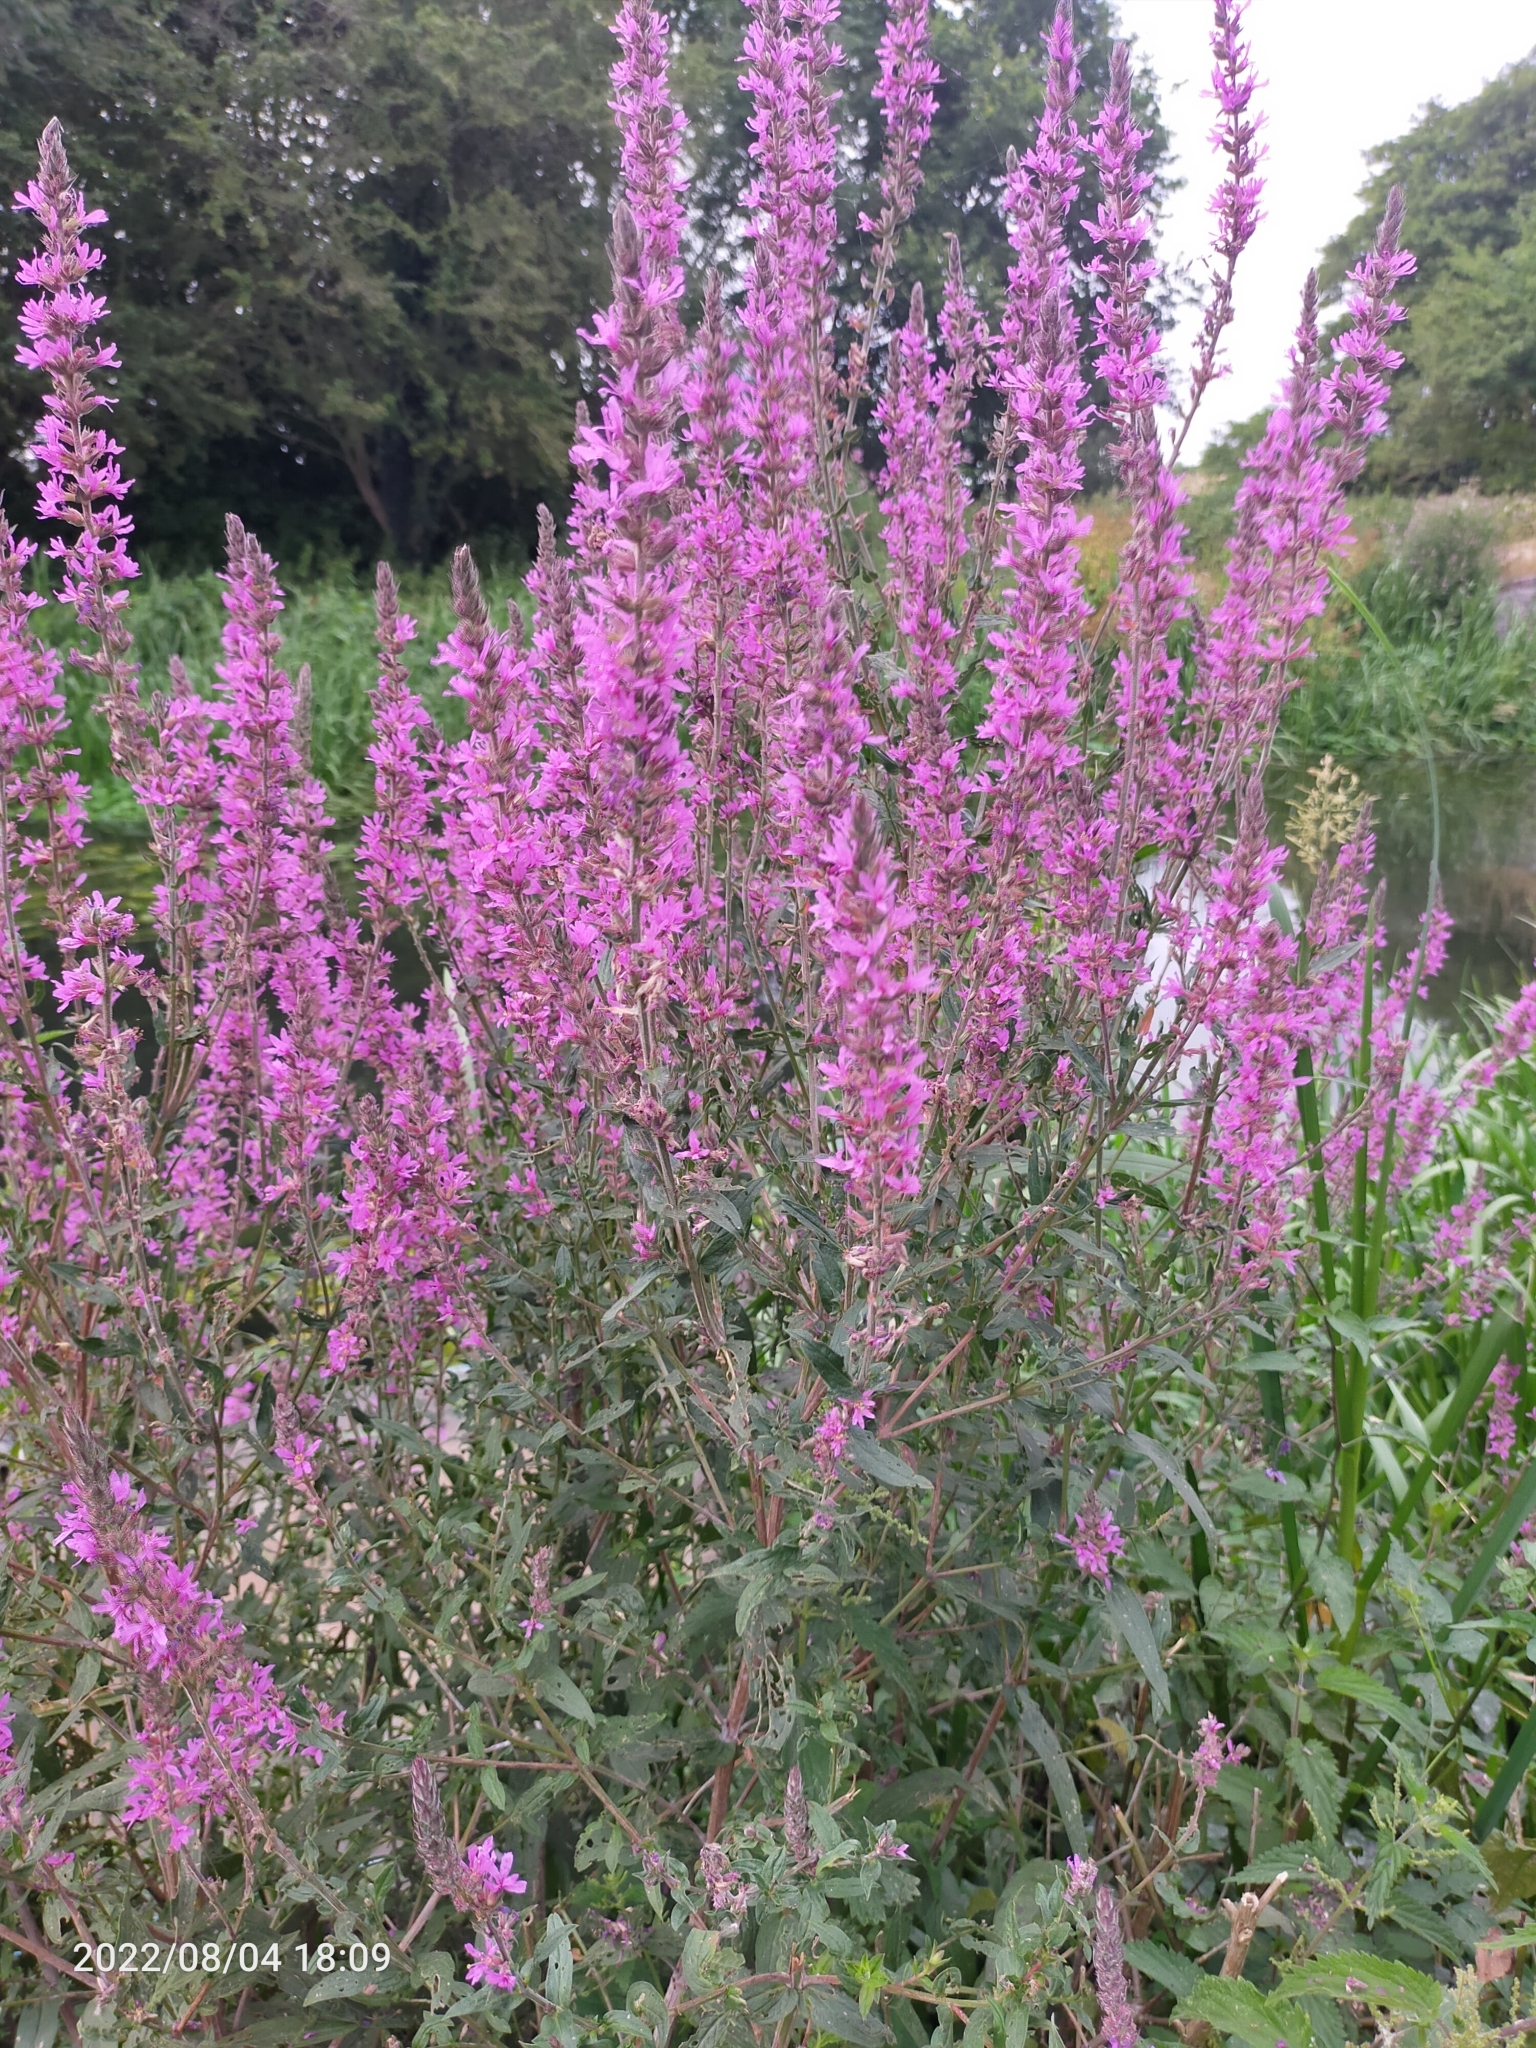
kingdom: Plantae
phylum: Tracheophyta
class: Magnoliopsida
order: Myrtales
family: Lythraceae
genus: Lythrum
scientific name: Lythrum salicaria
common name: Purple loosestrife
